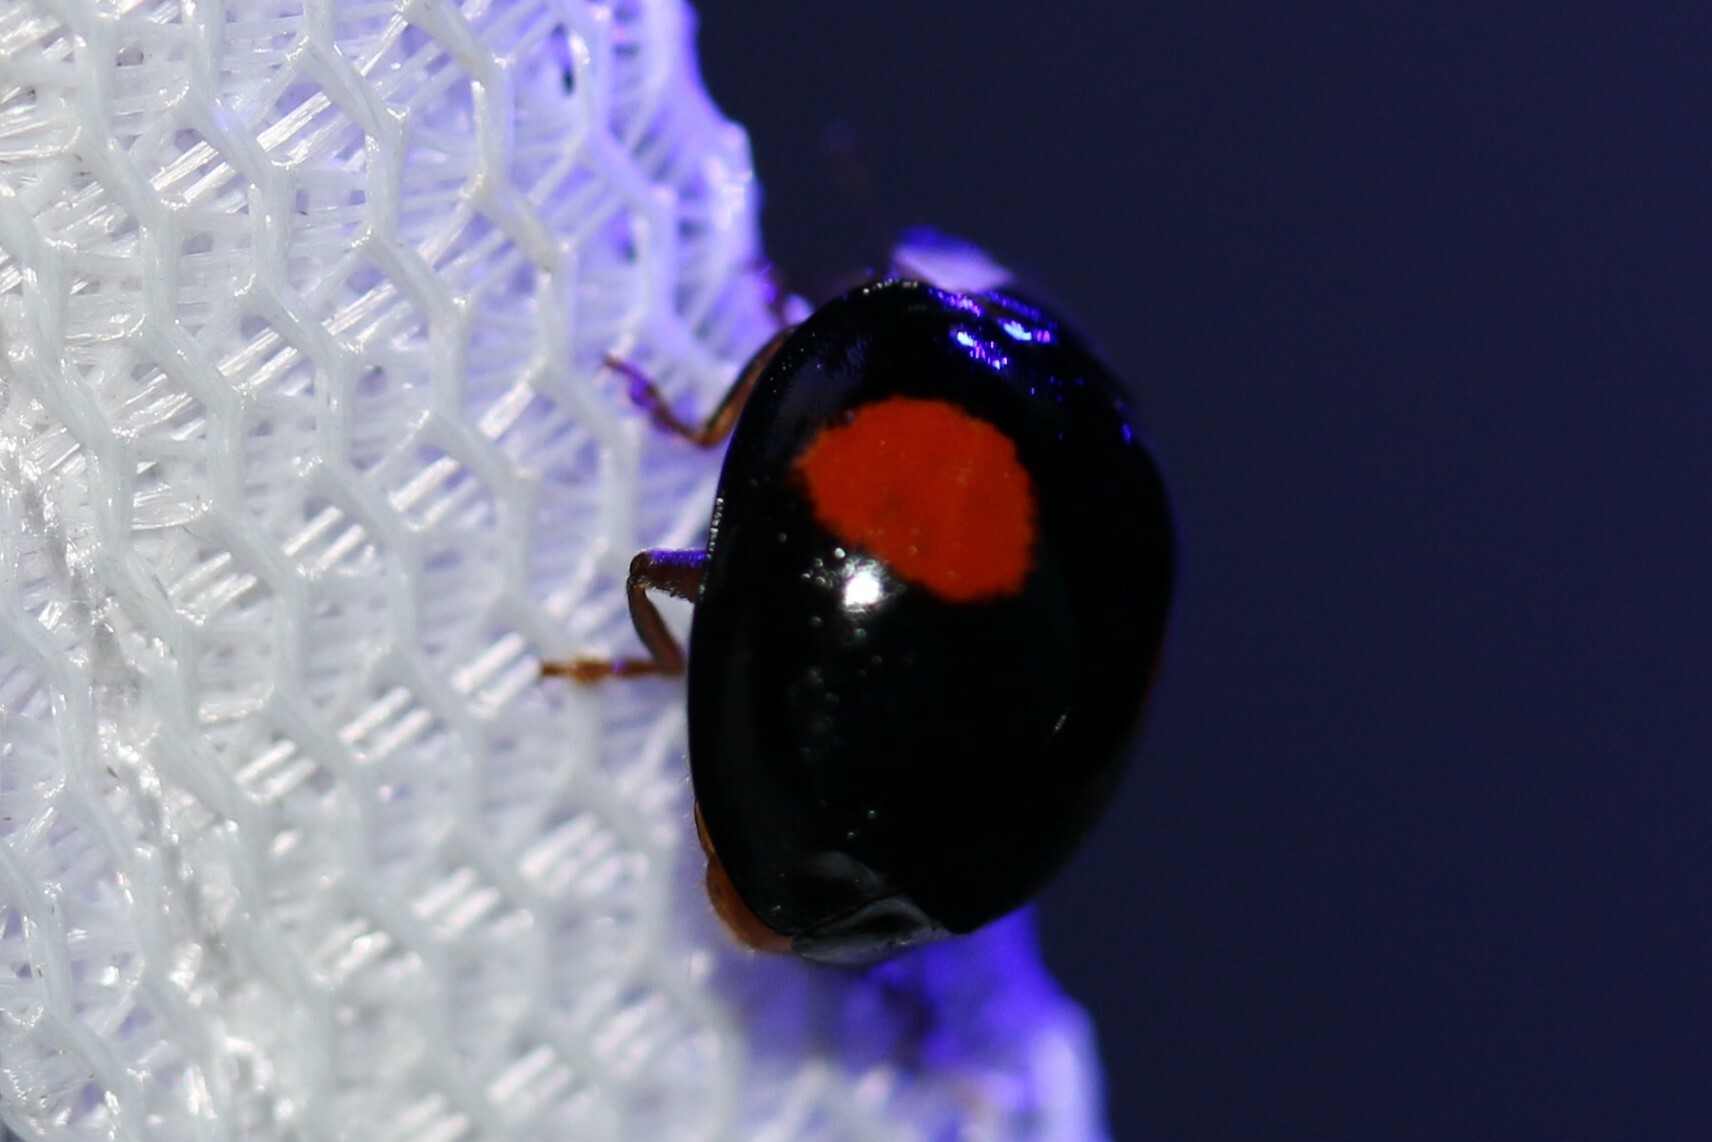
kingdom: Animalia
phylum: Arthropoda
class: Insecta
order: Coleoptera
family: Coccinellidae
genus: Harmonia
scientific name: Harmonia axyridis
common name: Harlequin ladybird
